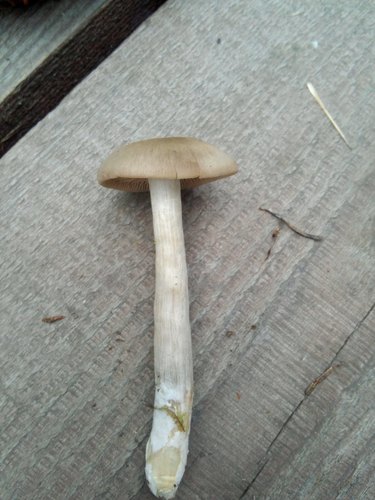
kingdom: Fungi
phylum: Basidiomycota
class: Agaricomycetes
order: Agaricales
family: Entolomataceae
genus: Entoloma
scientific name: Entoloma
